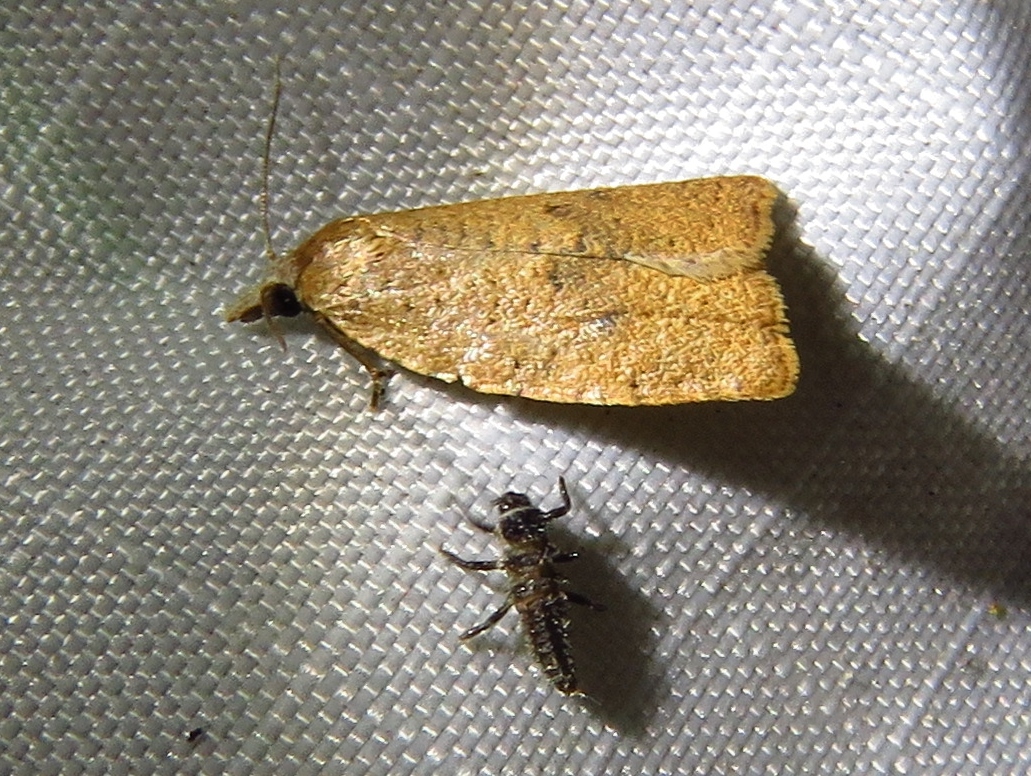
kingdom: Animalia
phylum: Arthropoda
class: Insecta
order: Lepidoptera
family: Tortricidae
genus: Sparganothoides
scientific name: Sparganothoides lentiginosana
